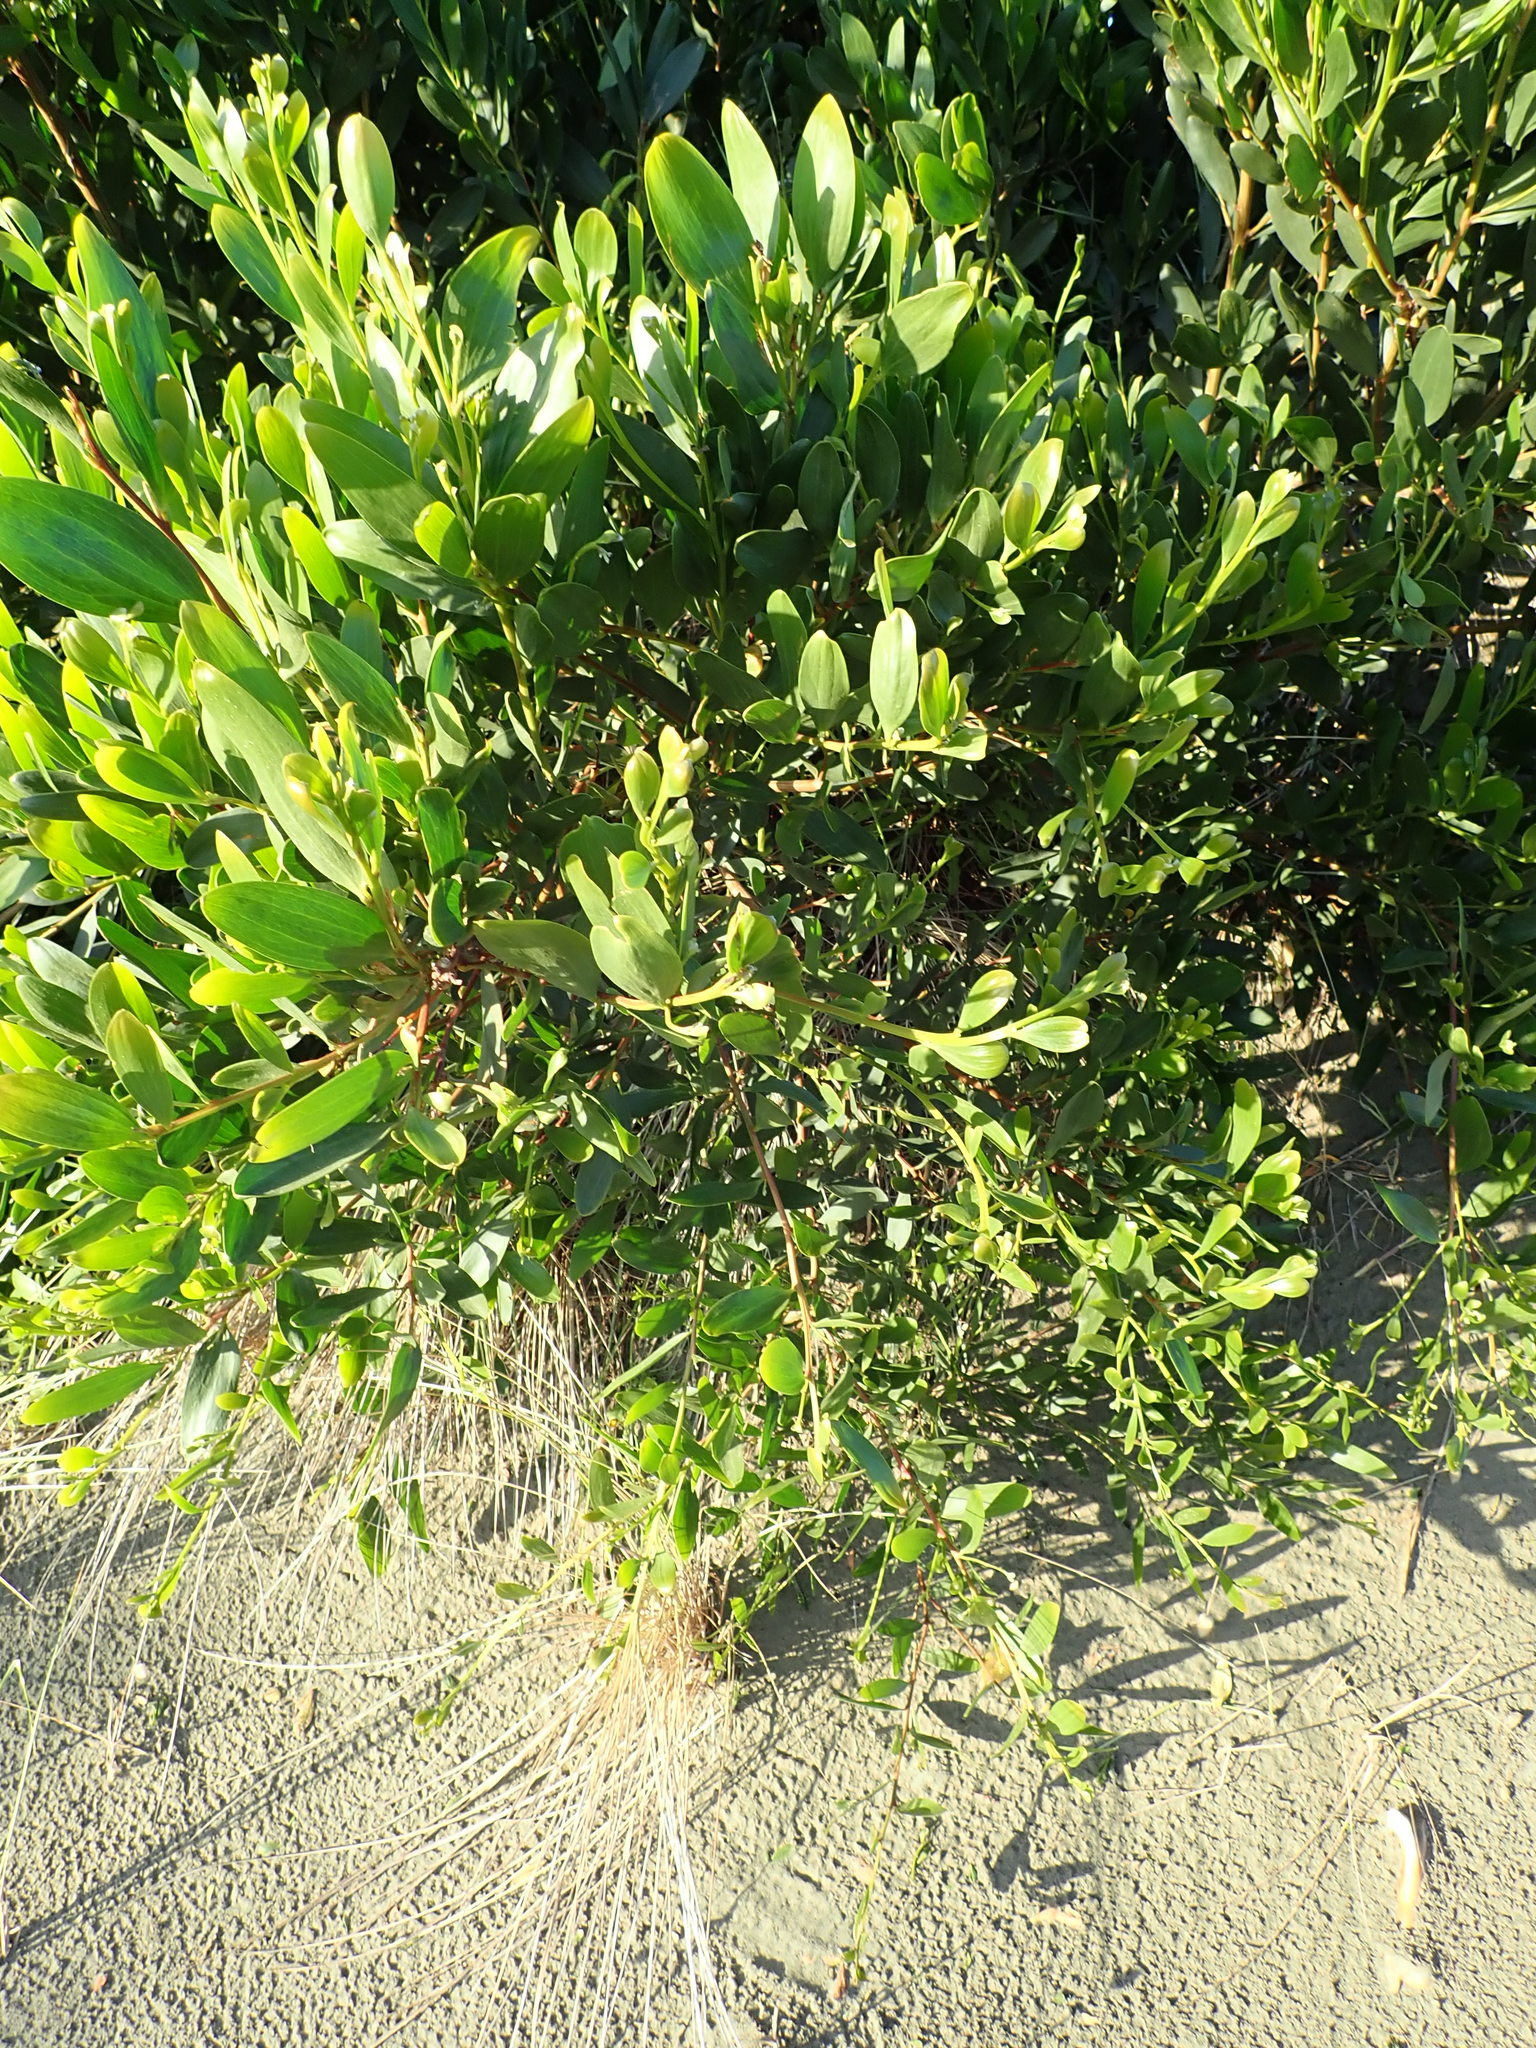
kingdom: Plantae
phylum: Tracheophyta
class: Magnoliopsida
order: Fabales
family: Fabaceae
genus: Acacia
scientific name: Acacia longifolia
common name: Sydney golden wattle
